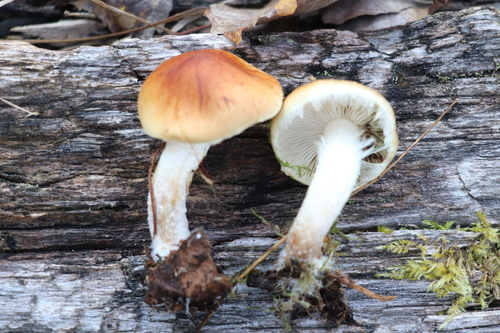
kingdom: Fungi
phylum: Basidiomycota
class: Agaricomycetes
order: Agaricales
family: Strophariaceae
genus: Pholiota
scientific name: Pholiota lubrica
